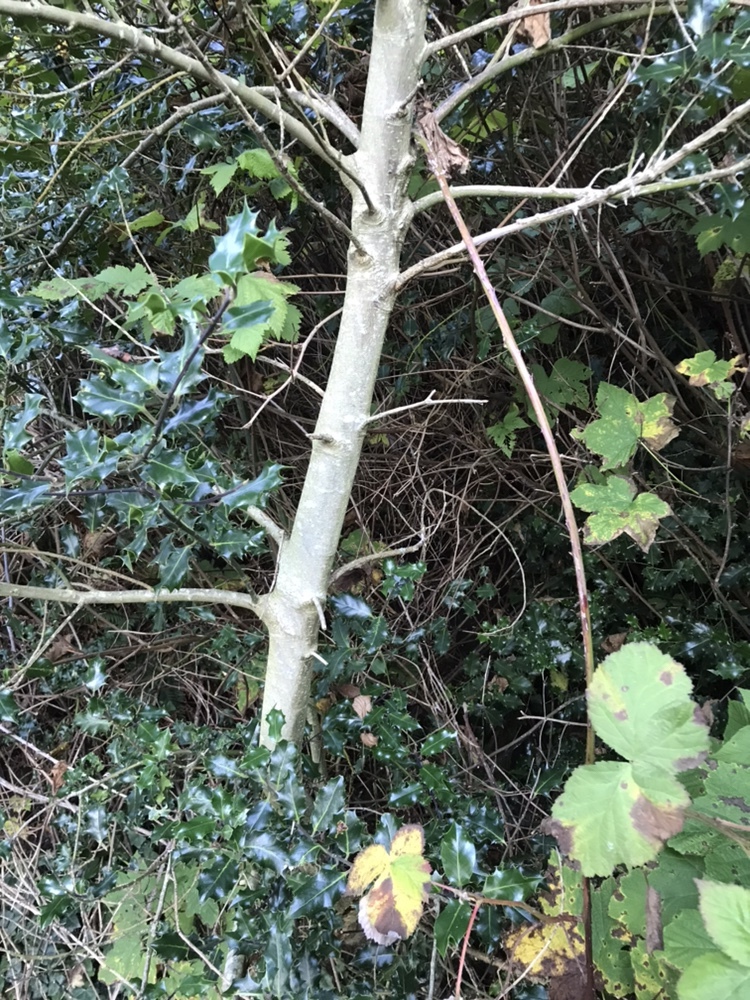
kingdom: Plantae
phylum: Tracheophyta
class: Magnoliopsida
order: Aquifoliales
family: Aquifoliaceae
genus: Ilex
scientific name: Ilex aquifolium
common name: English holly
